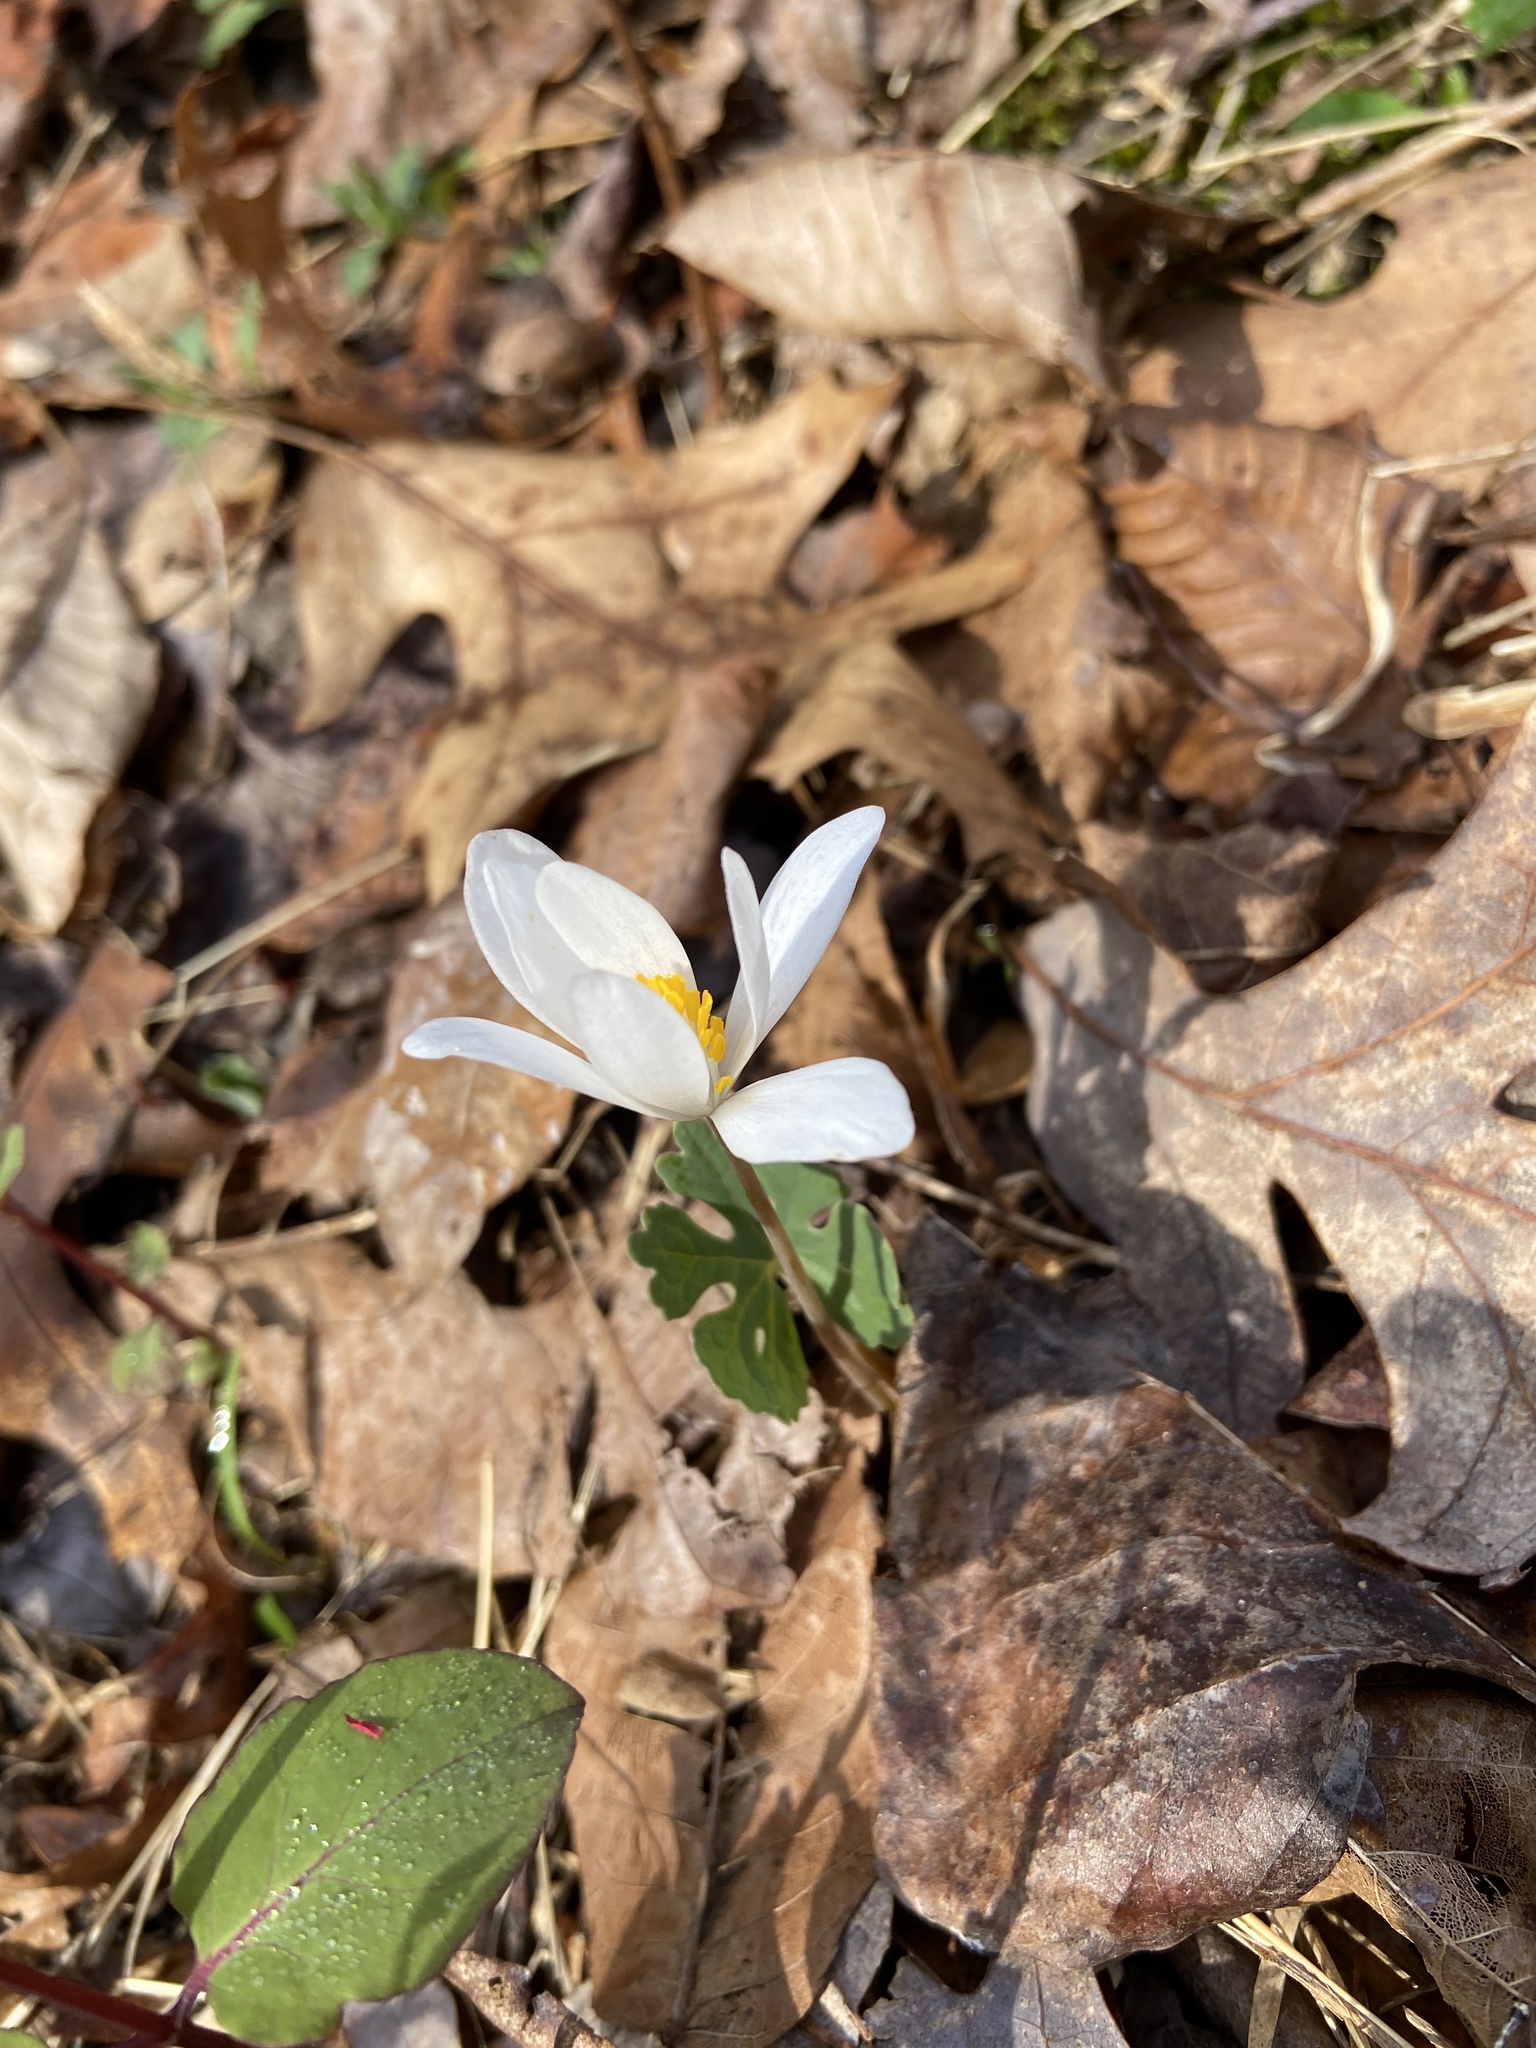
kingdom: Plantae
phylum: Tracheophyta
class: Magnoliopsida
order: Ranunculales
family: Papaveraceae
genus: Sanguinaria
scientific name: Sanguinaria canadensis
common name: Bloodroot
